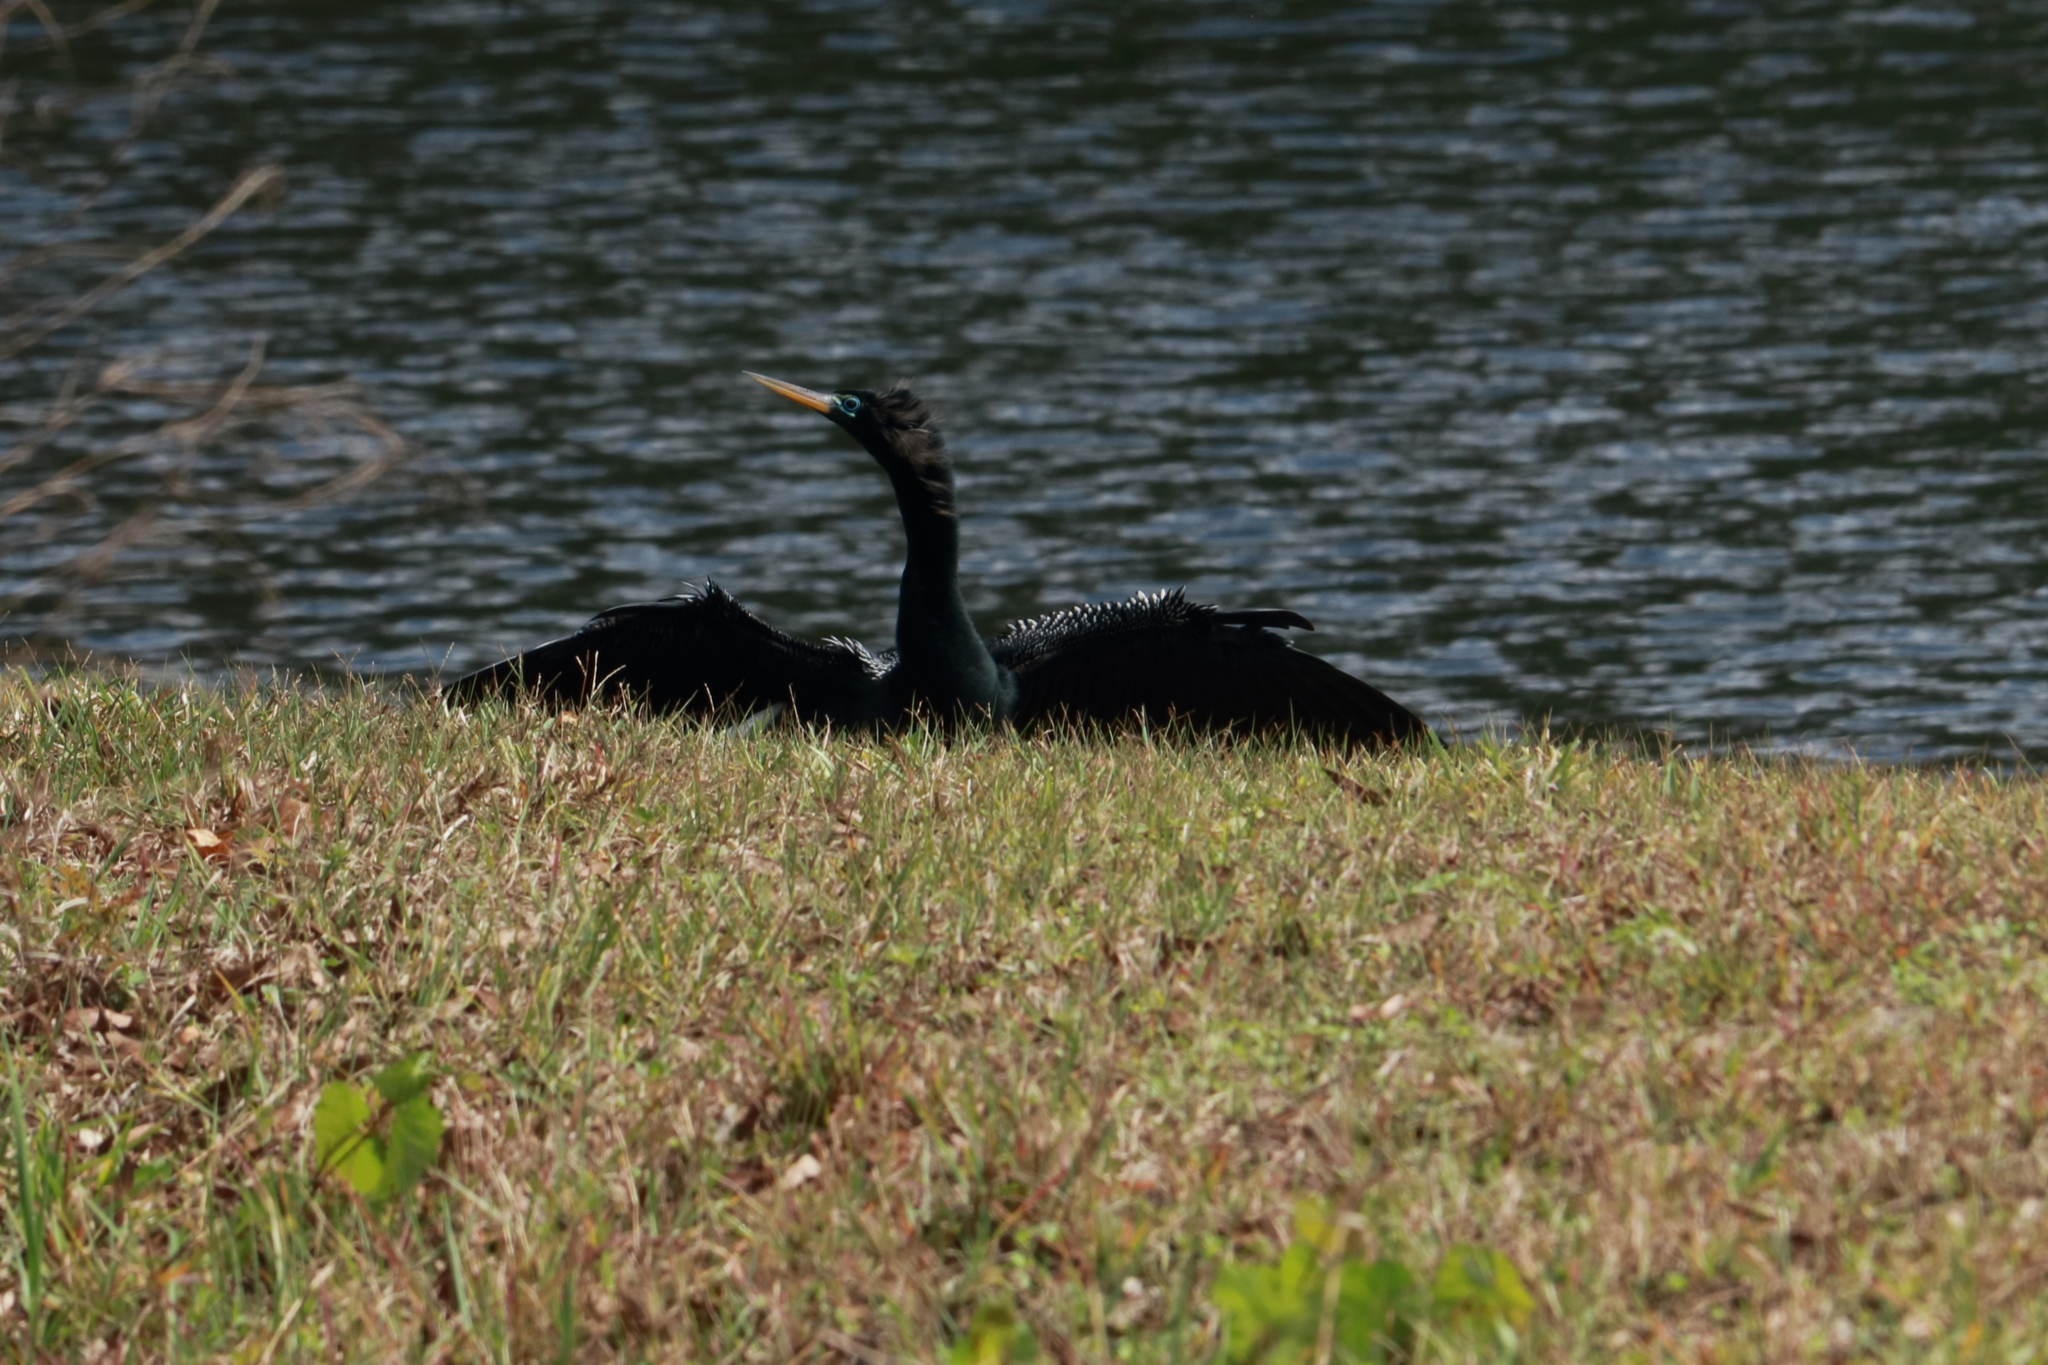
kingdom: Animalia
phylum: Chordata
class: Aves
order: Suliformes
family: Anhingidae
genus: Anhinga
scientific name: Anhinga anhinga
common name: Anhinga
